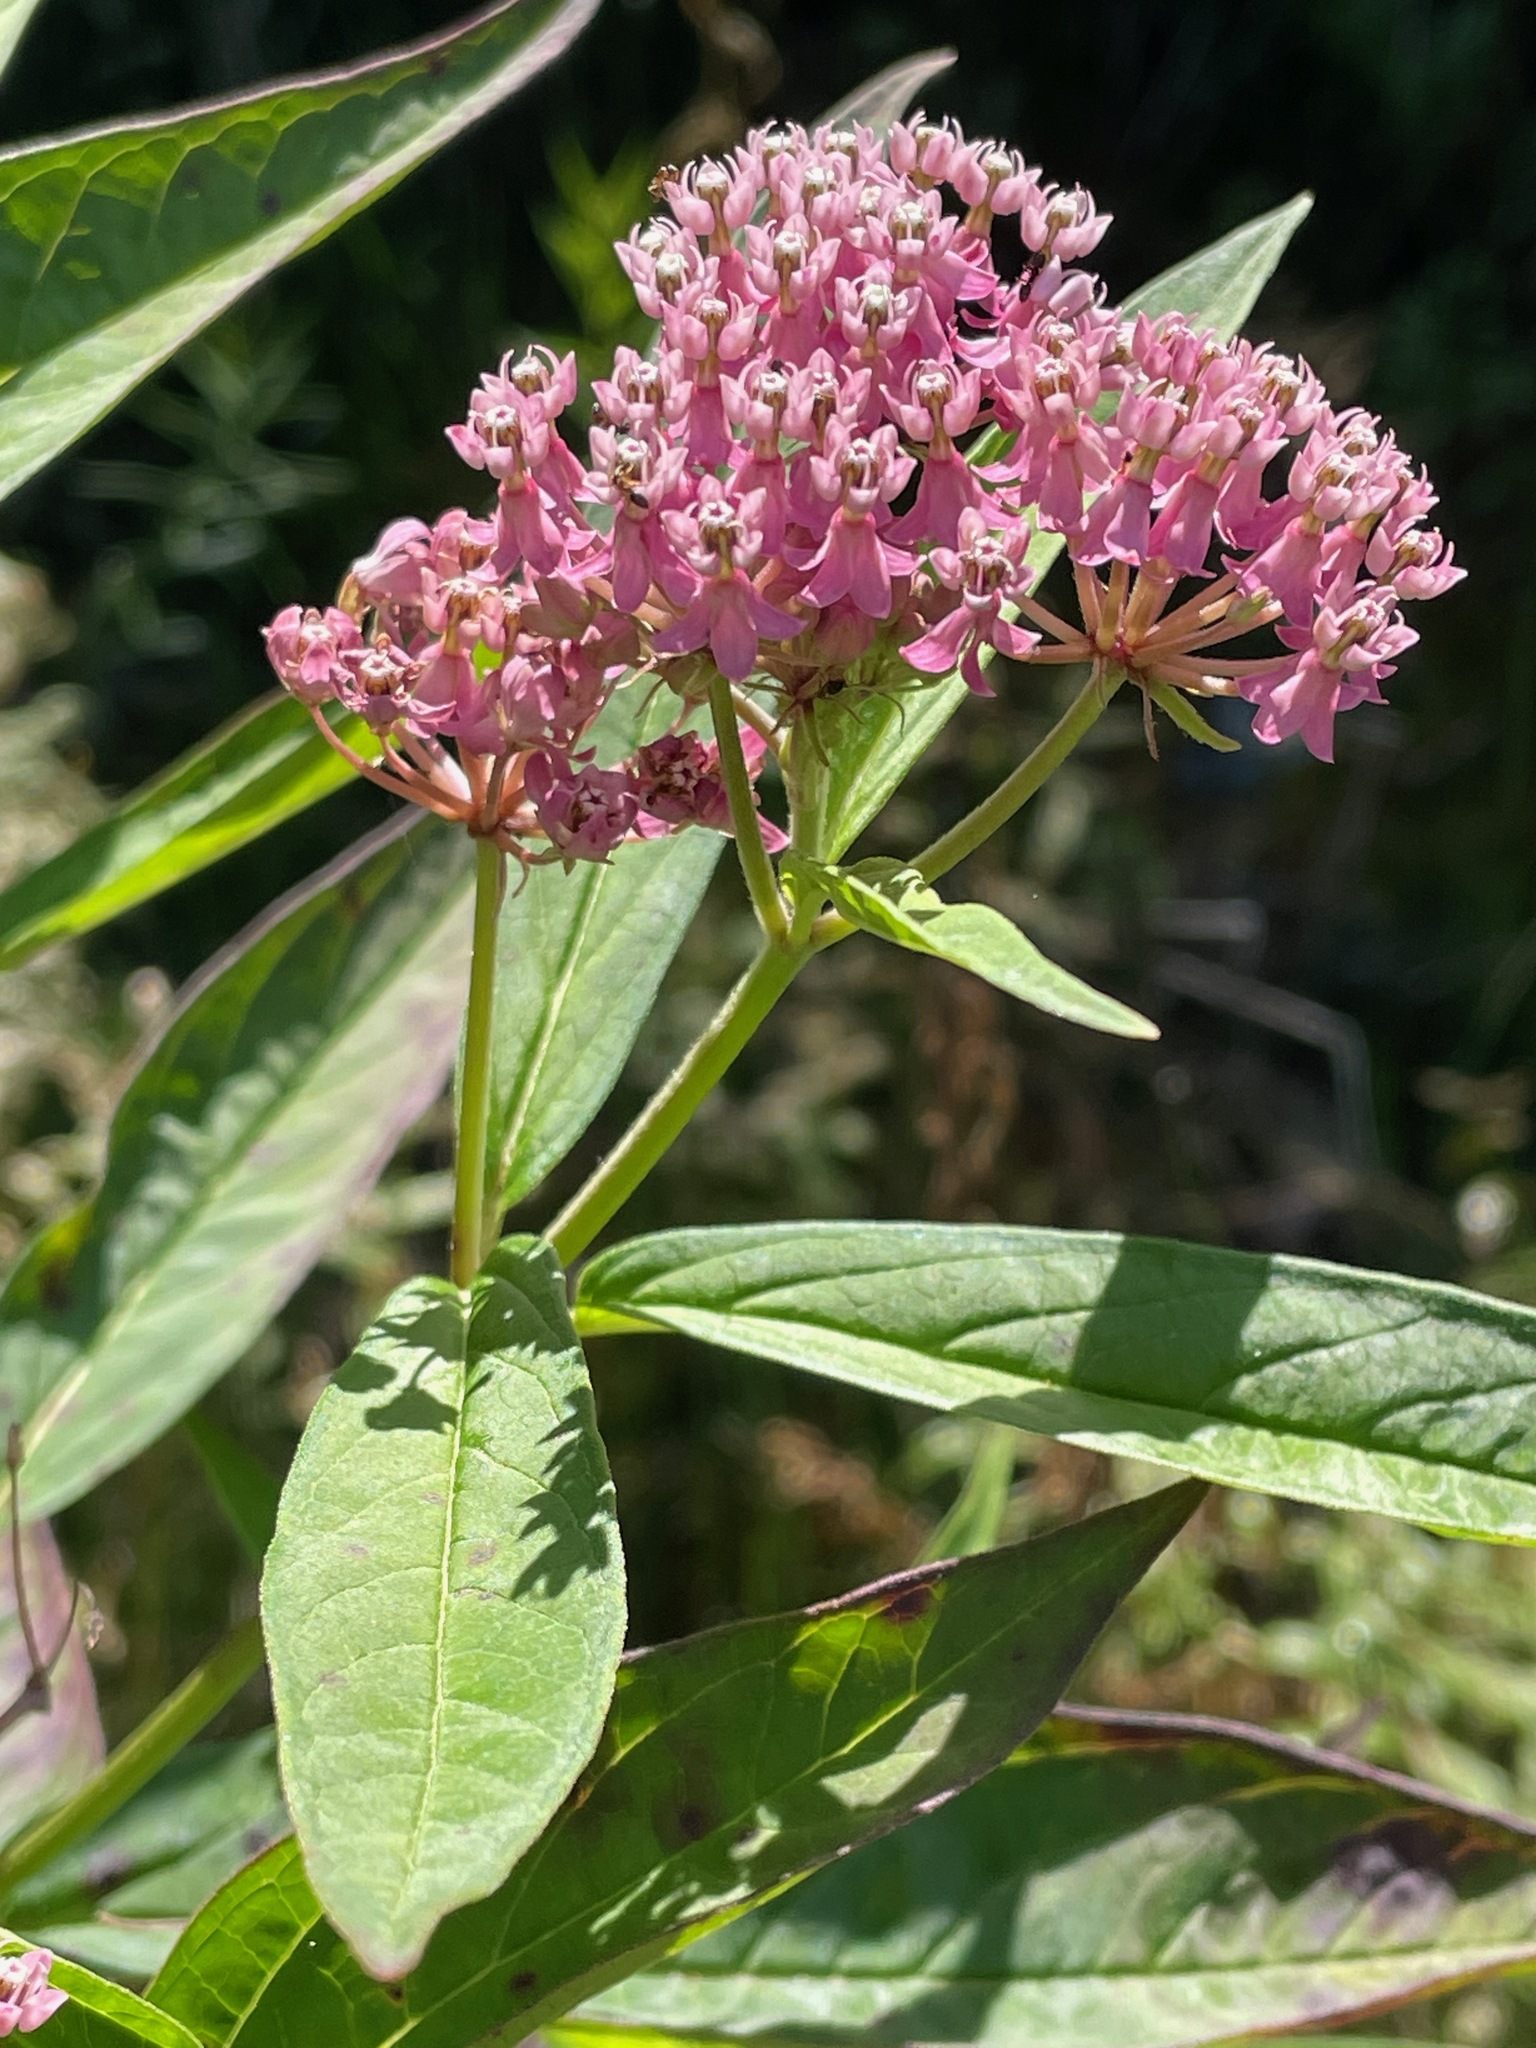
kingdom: Plantae
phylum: Tracheophyta
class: Magnoliopsida
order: Gentianales
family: Apocynaceae
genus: Asclepias
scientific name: Asclepias incarnata
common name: Swamp milkweed
